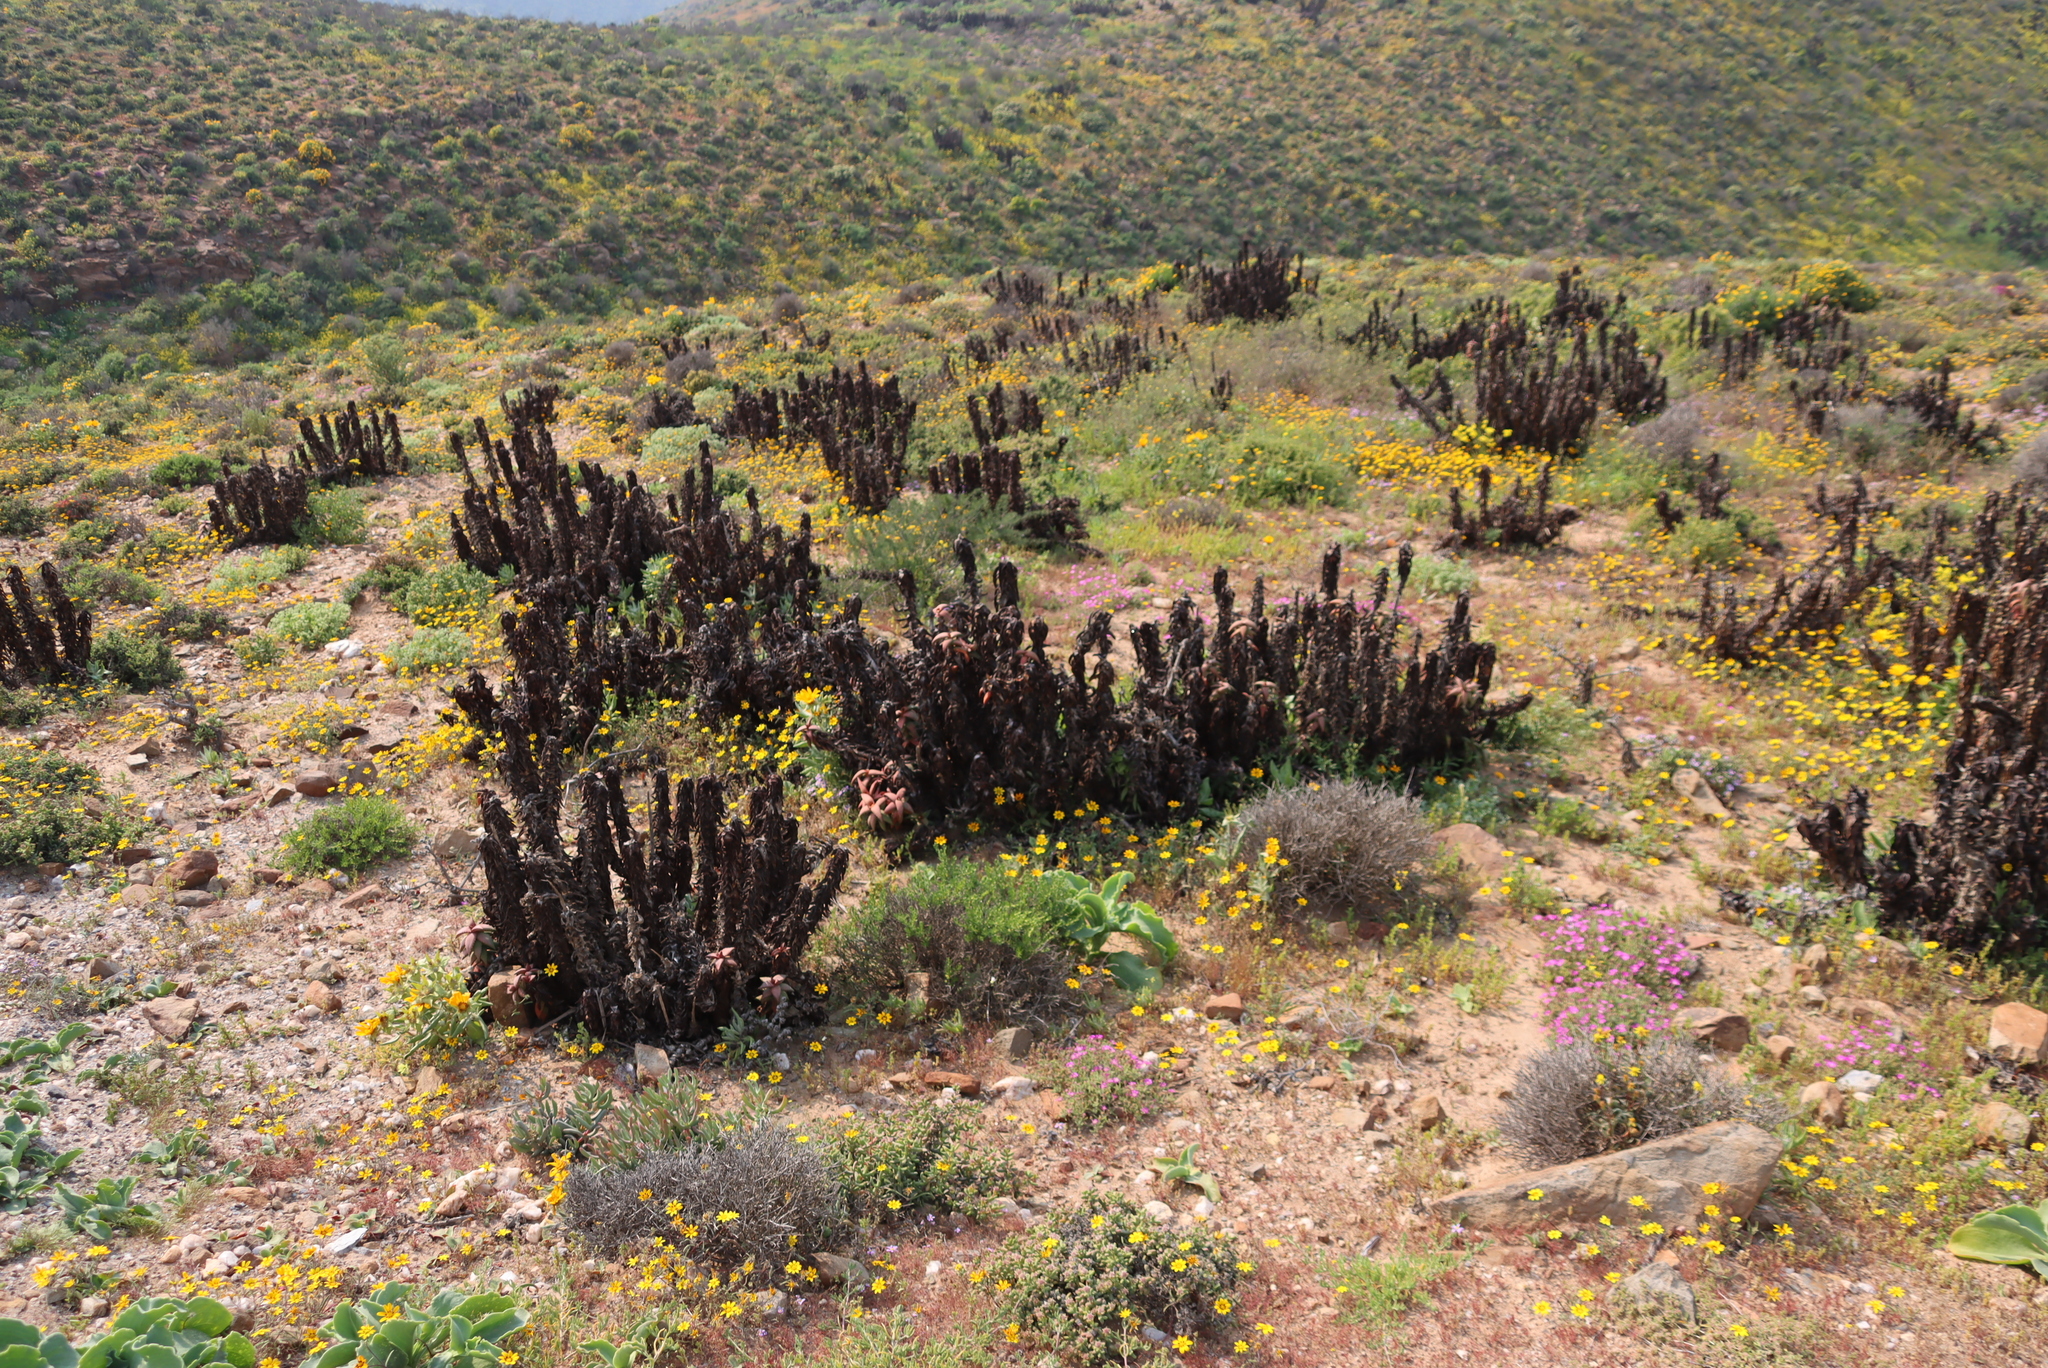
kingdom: Plantae
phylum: Tracheophyta
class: Liliopsida
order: Asparagales
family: Asphodelaceae
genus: Aloe
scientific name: Aloe pearsonii
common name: Pearson's aloe
